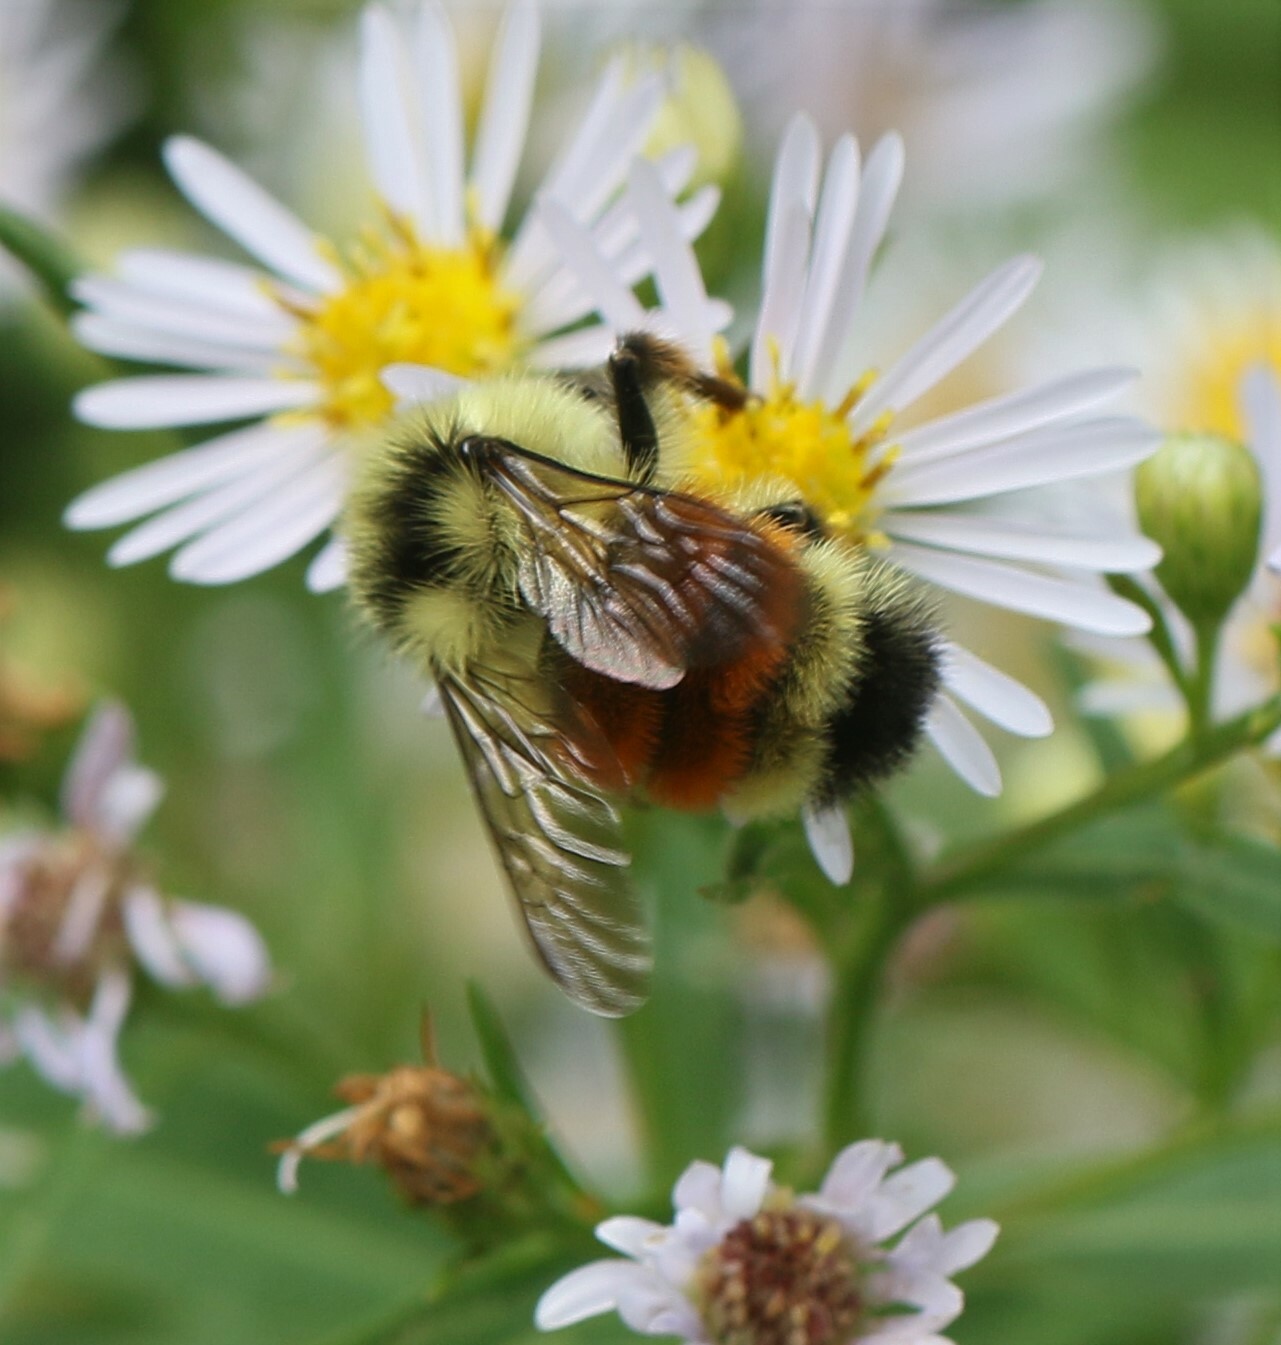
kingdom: Animalia
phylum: Arthropoda
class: Insecta
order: Hymenoptera
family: Apidae
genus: Bombus
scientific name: Bombus ternarius
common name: Tri-colored bumble bee
